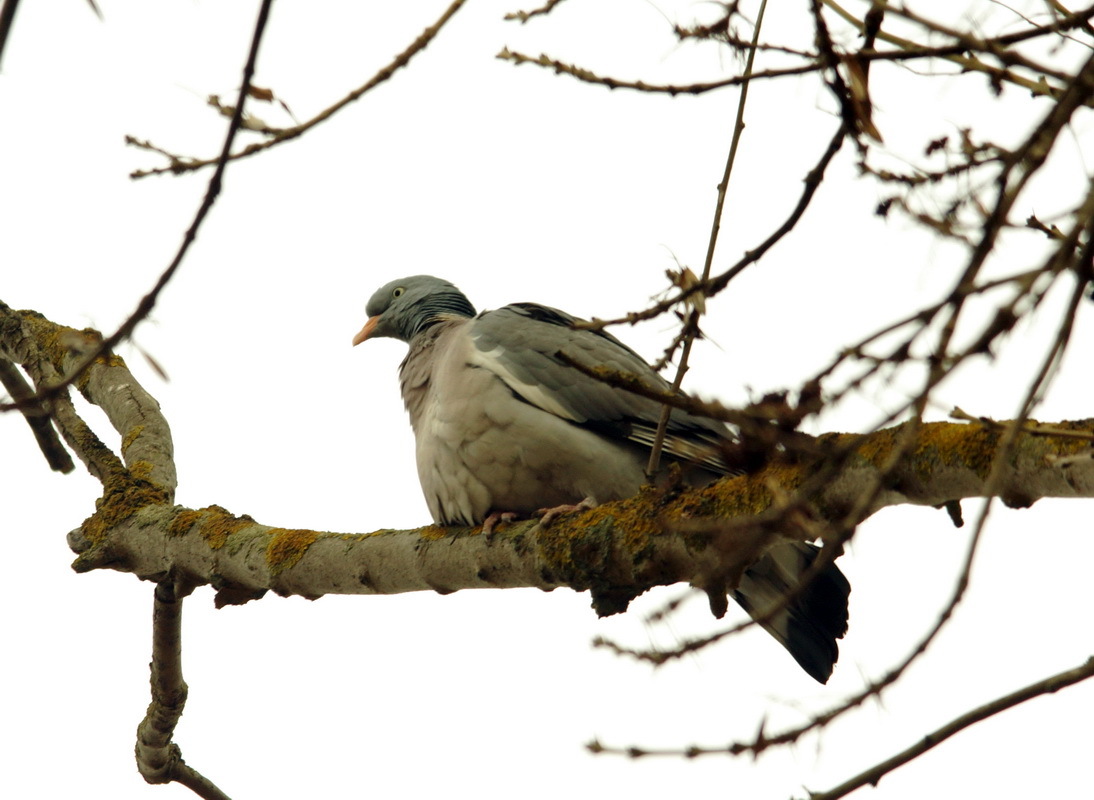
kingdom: Animalia
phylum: Chordata
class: Aves
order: Columbiformes
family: Columbidae
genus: Columba
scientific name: Columba palumbus
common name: Common wood pigeon
